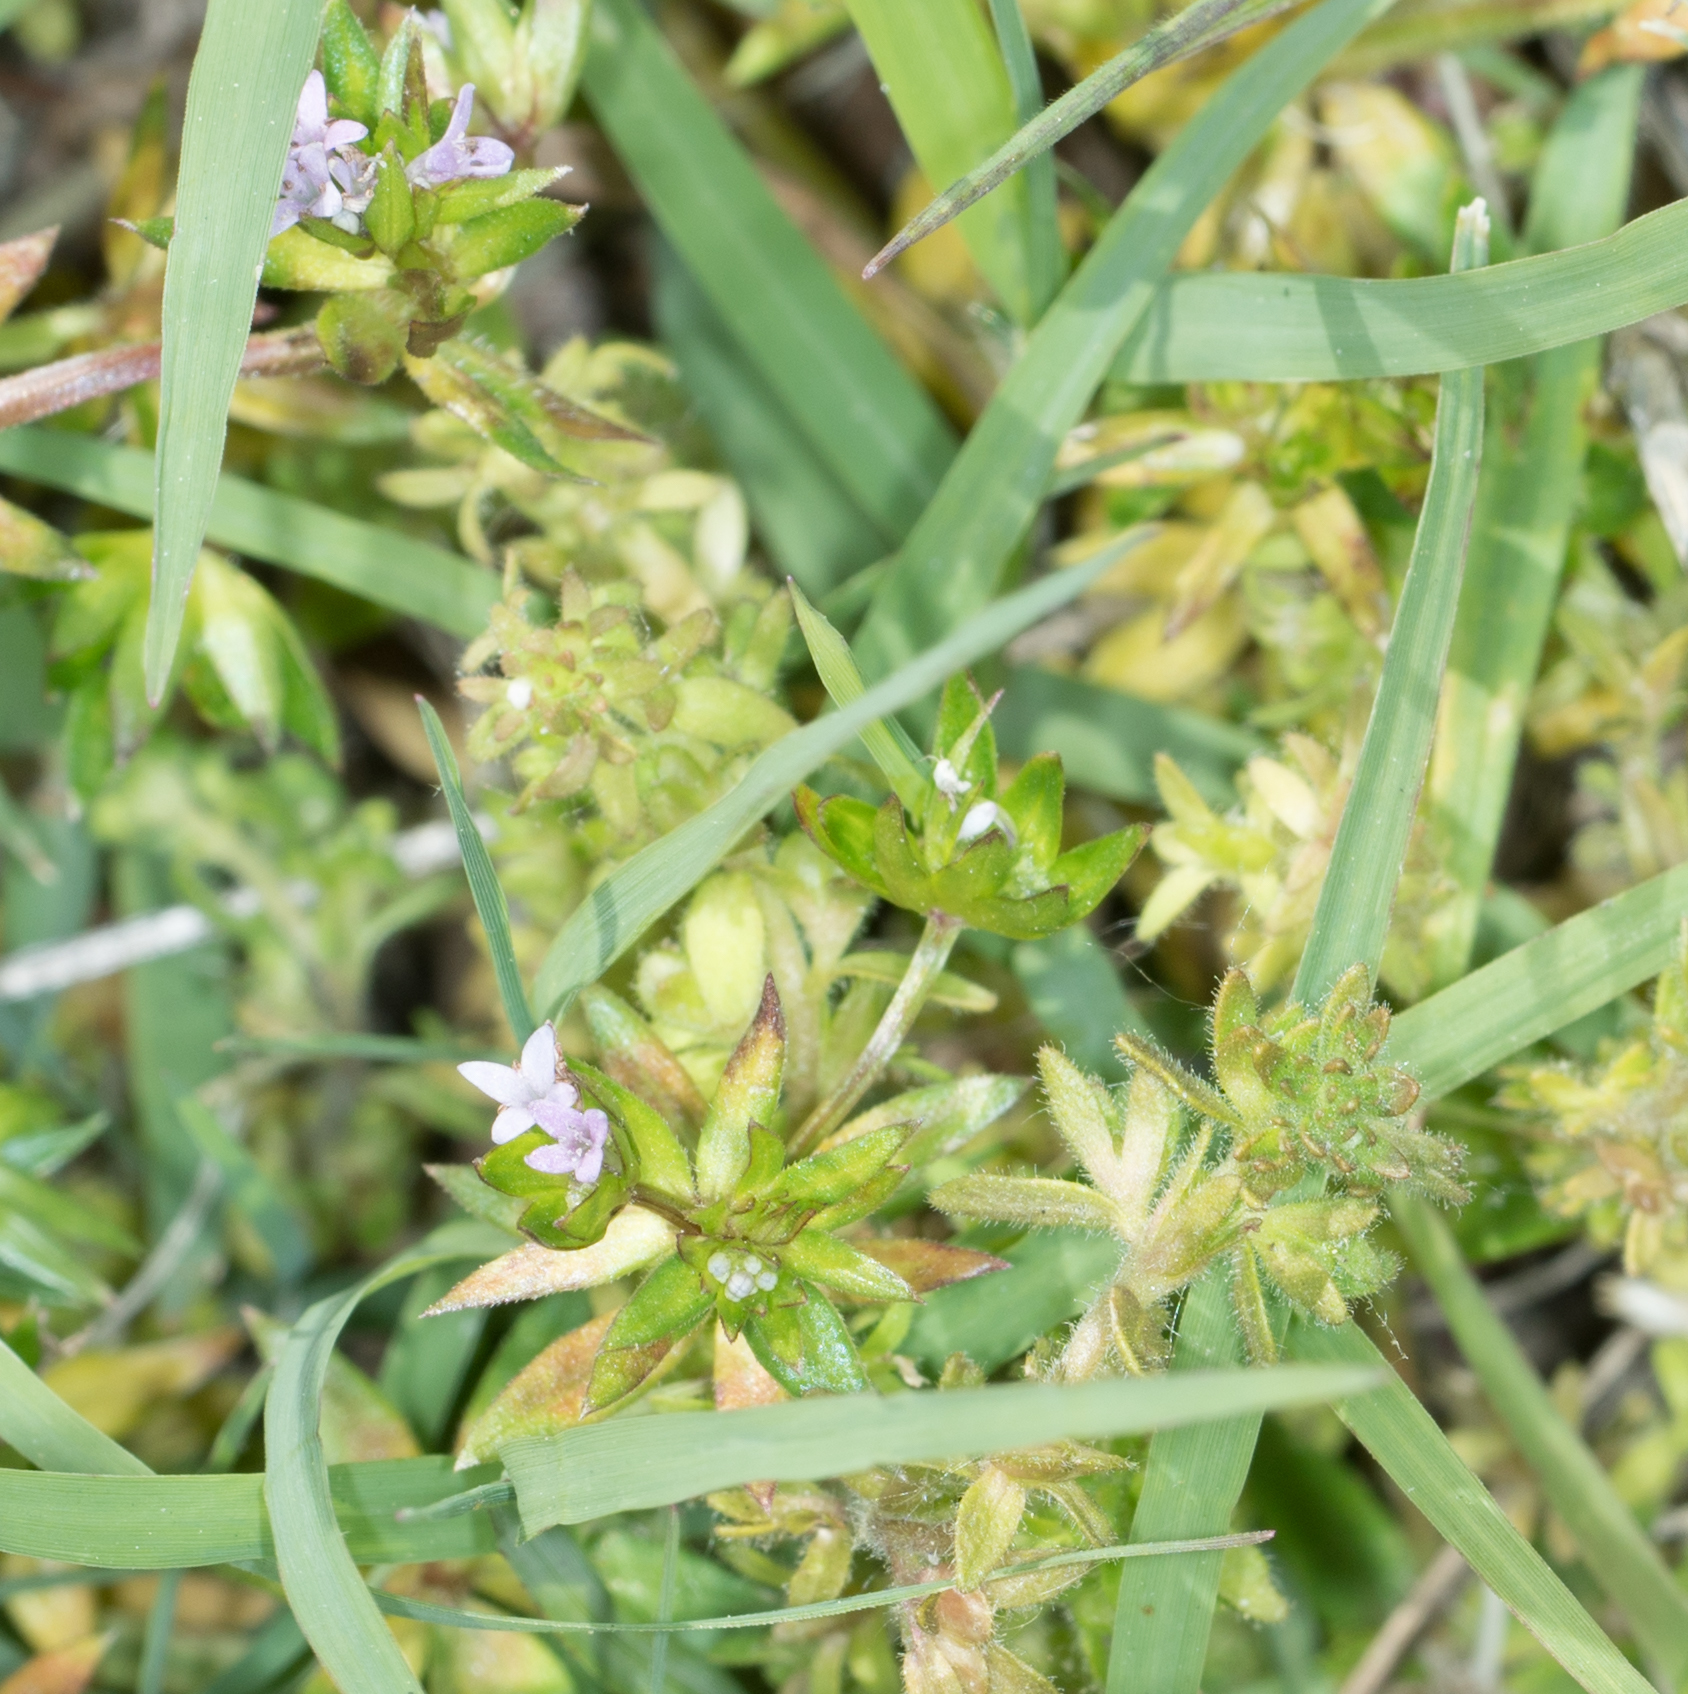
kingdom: Plantae
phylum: Tracheophyta
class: Magnoliopsida
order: Gentianales
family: Rubiaceae
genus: Sherardia
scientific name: Sherardia arvensis
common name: Field madder
